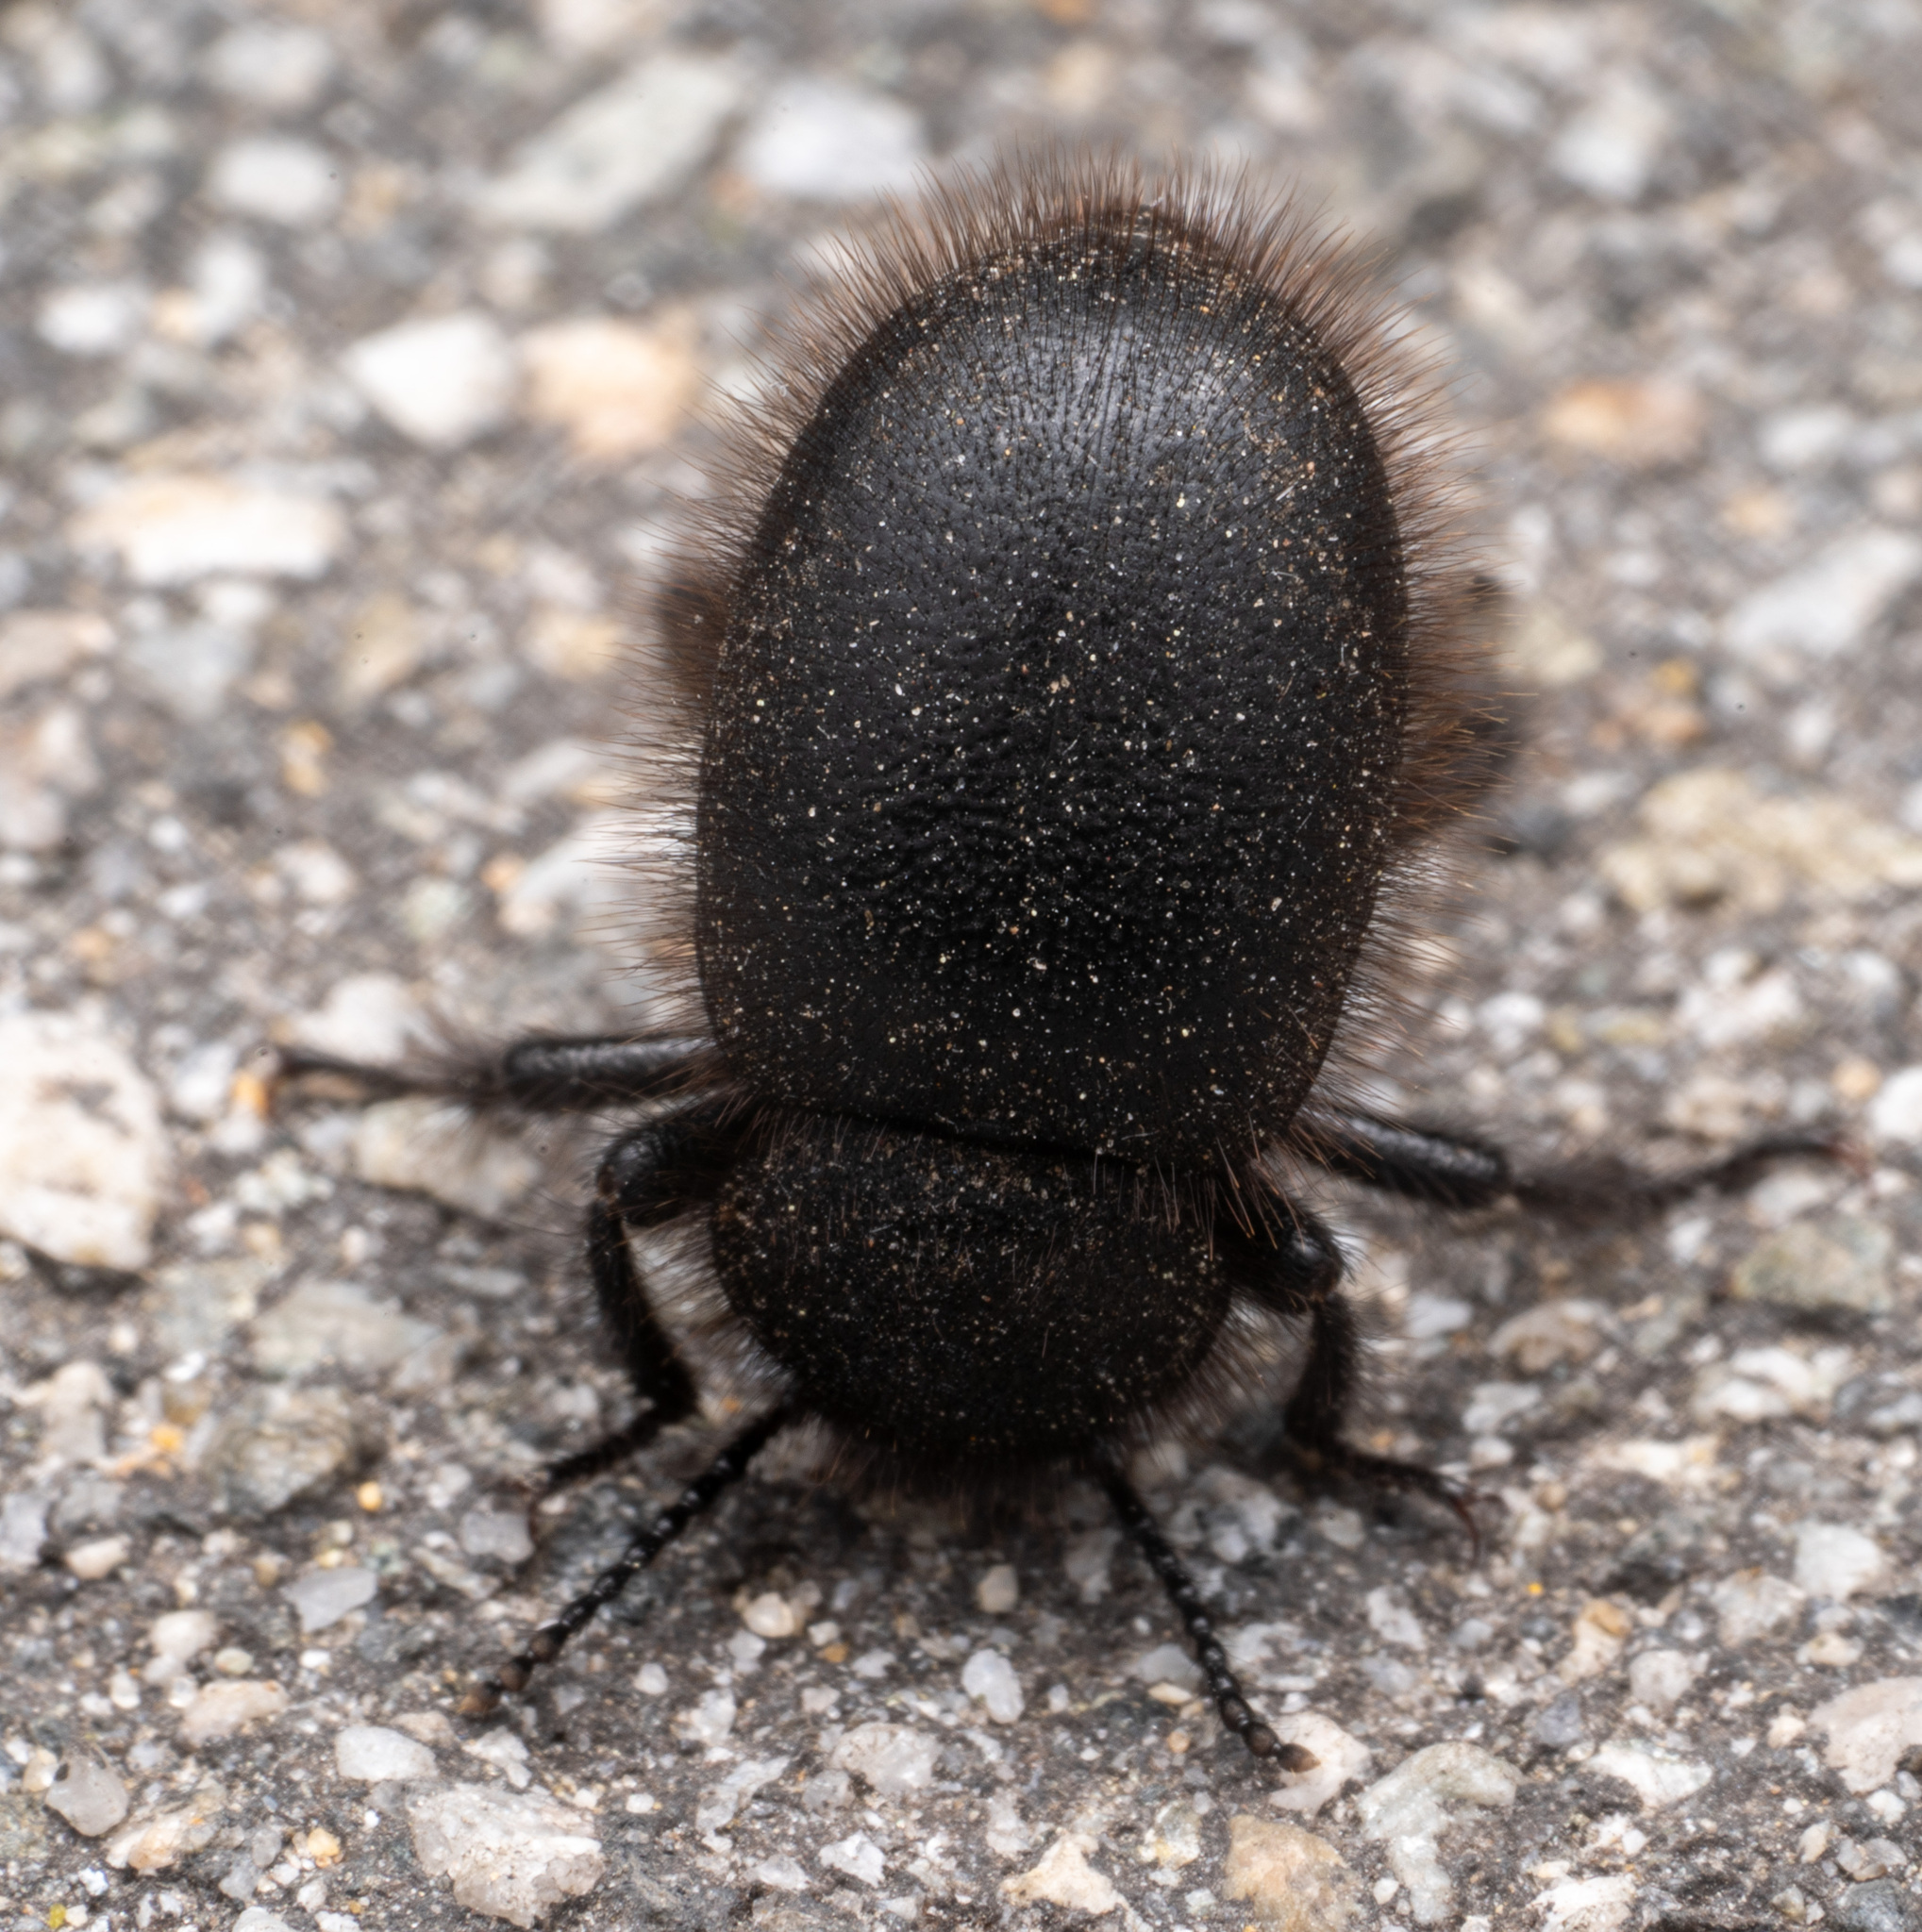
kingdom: Animalia
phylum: Arthropoda
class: Insecta
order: Coleoptera
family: Tenebrionidae
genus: Eleodes
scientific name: Eleodes osculans
